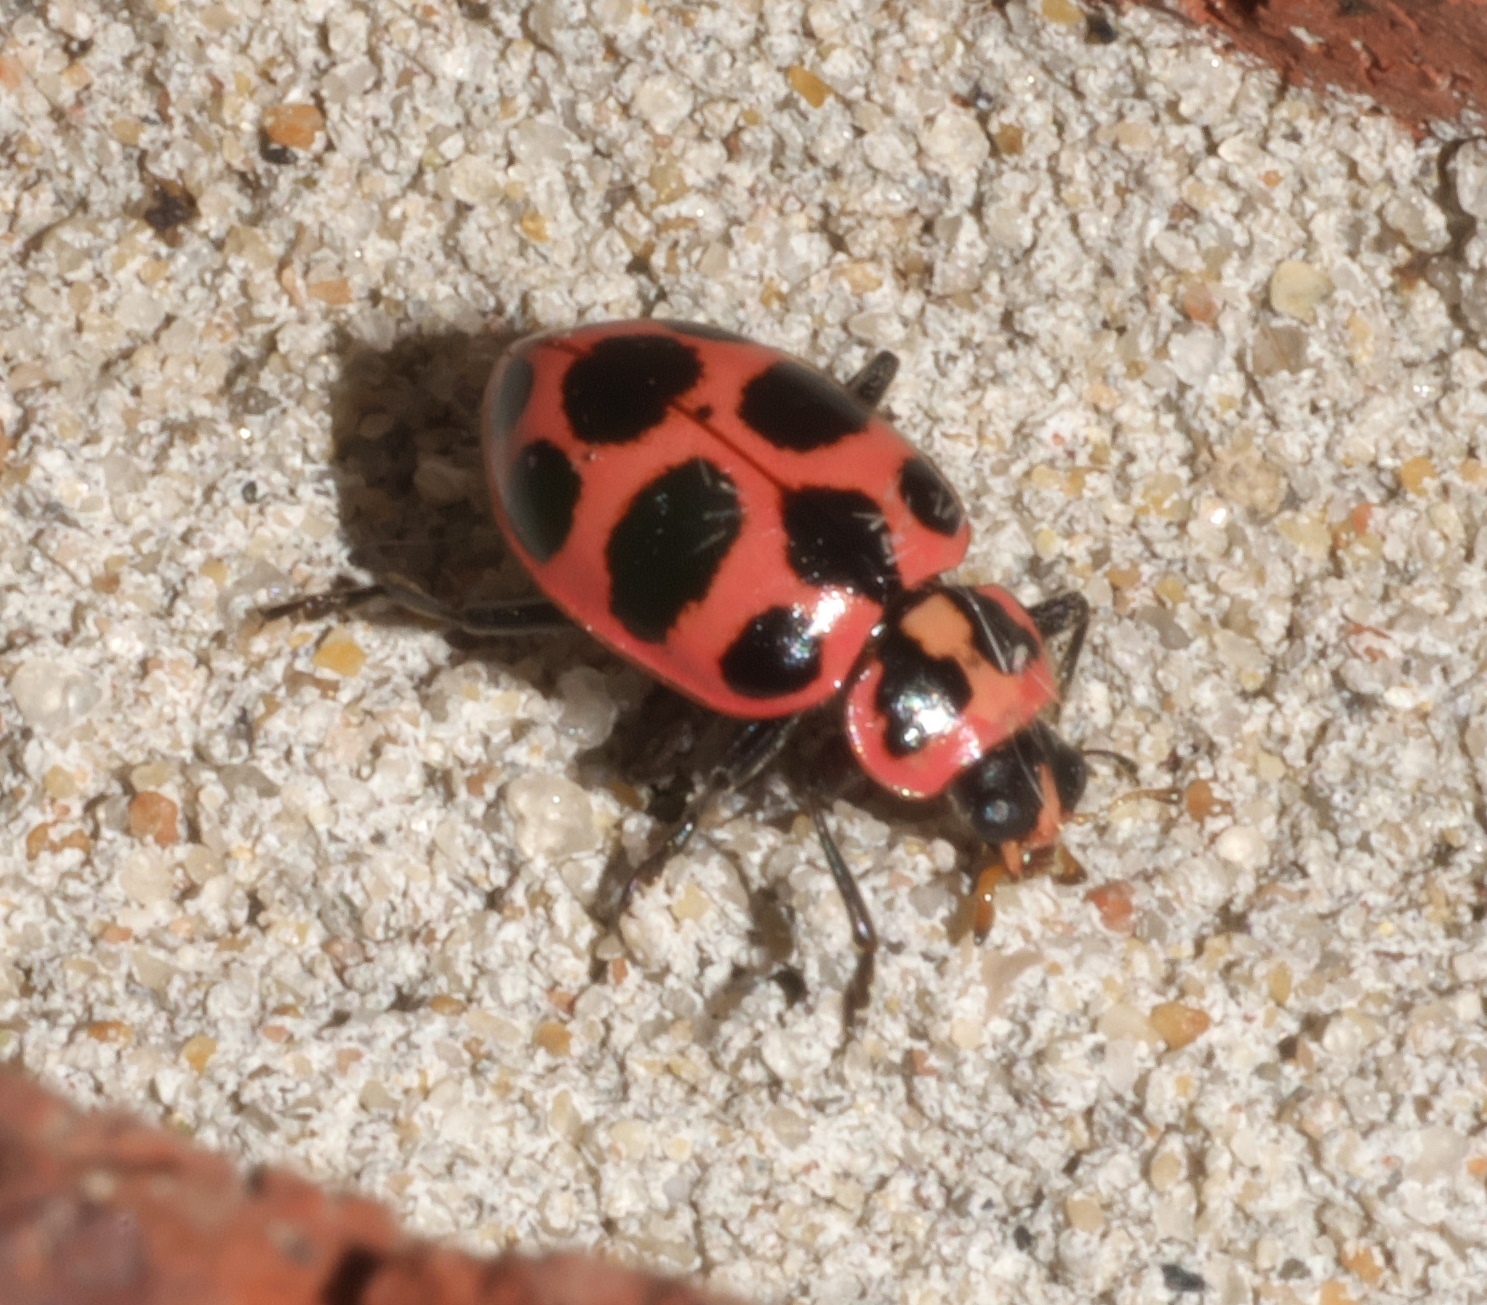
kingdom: Animalia
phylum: Arthropoda
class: Insecta
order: Coleoptera
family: Coccinellidae
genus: Coleomegilla
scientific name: Coleomegilla maculata
